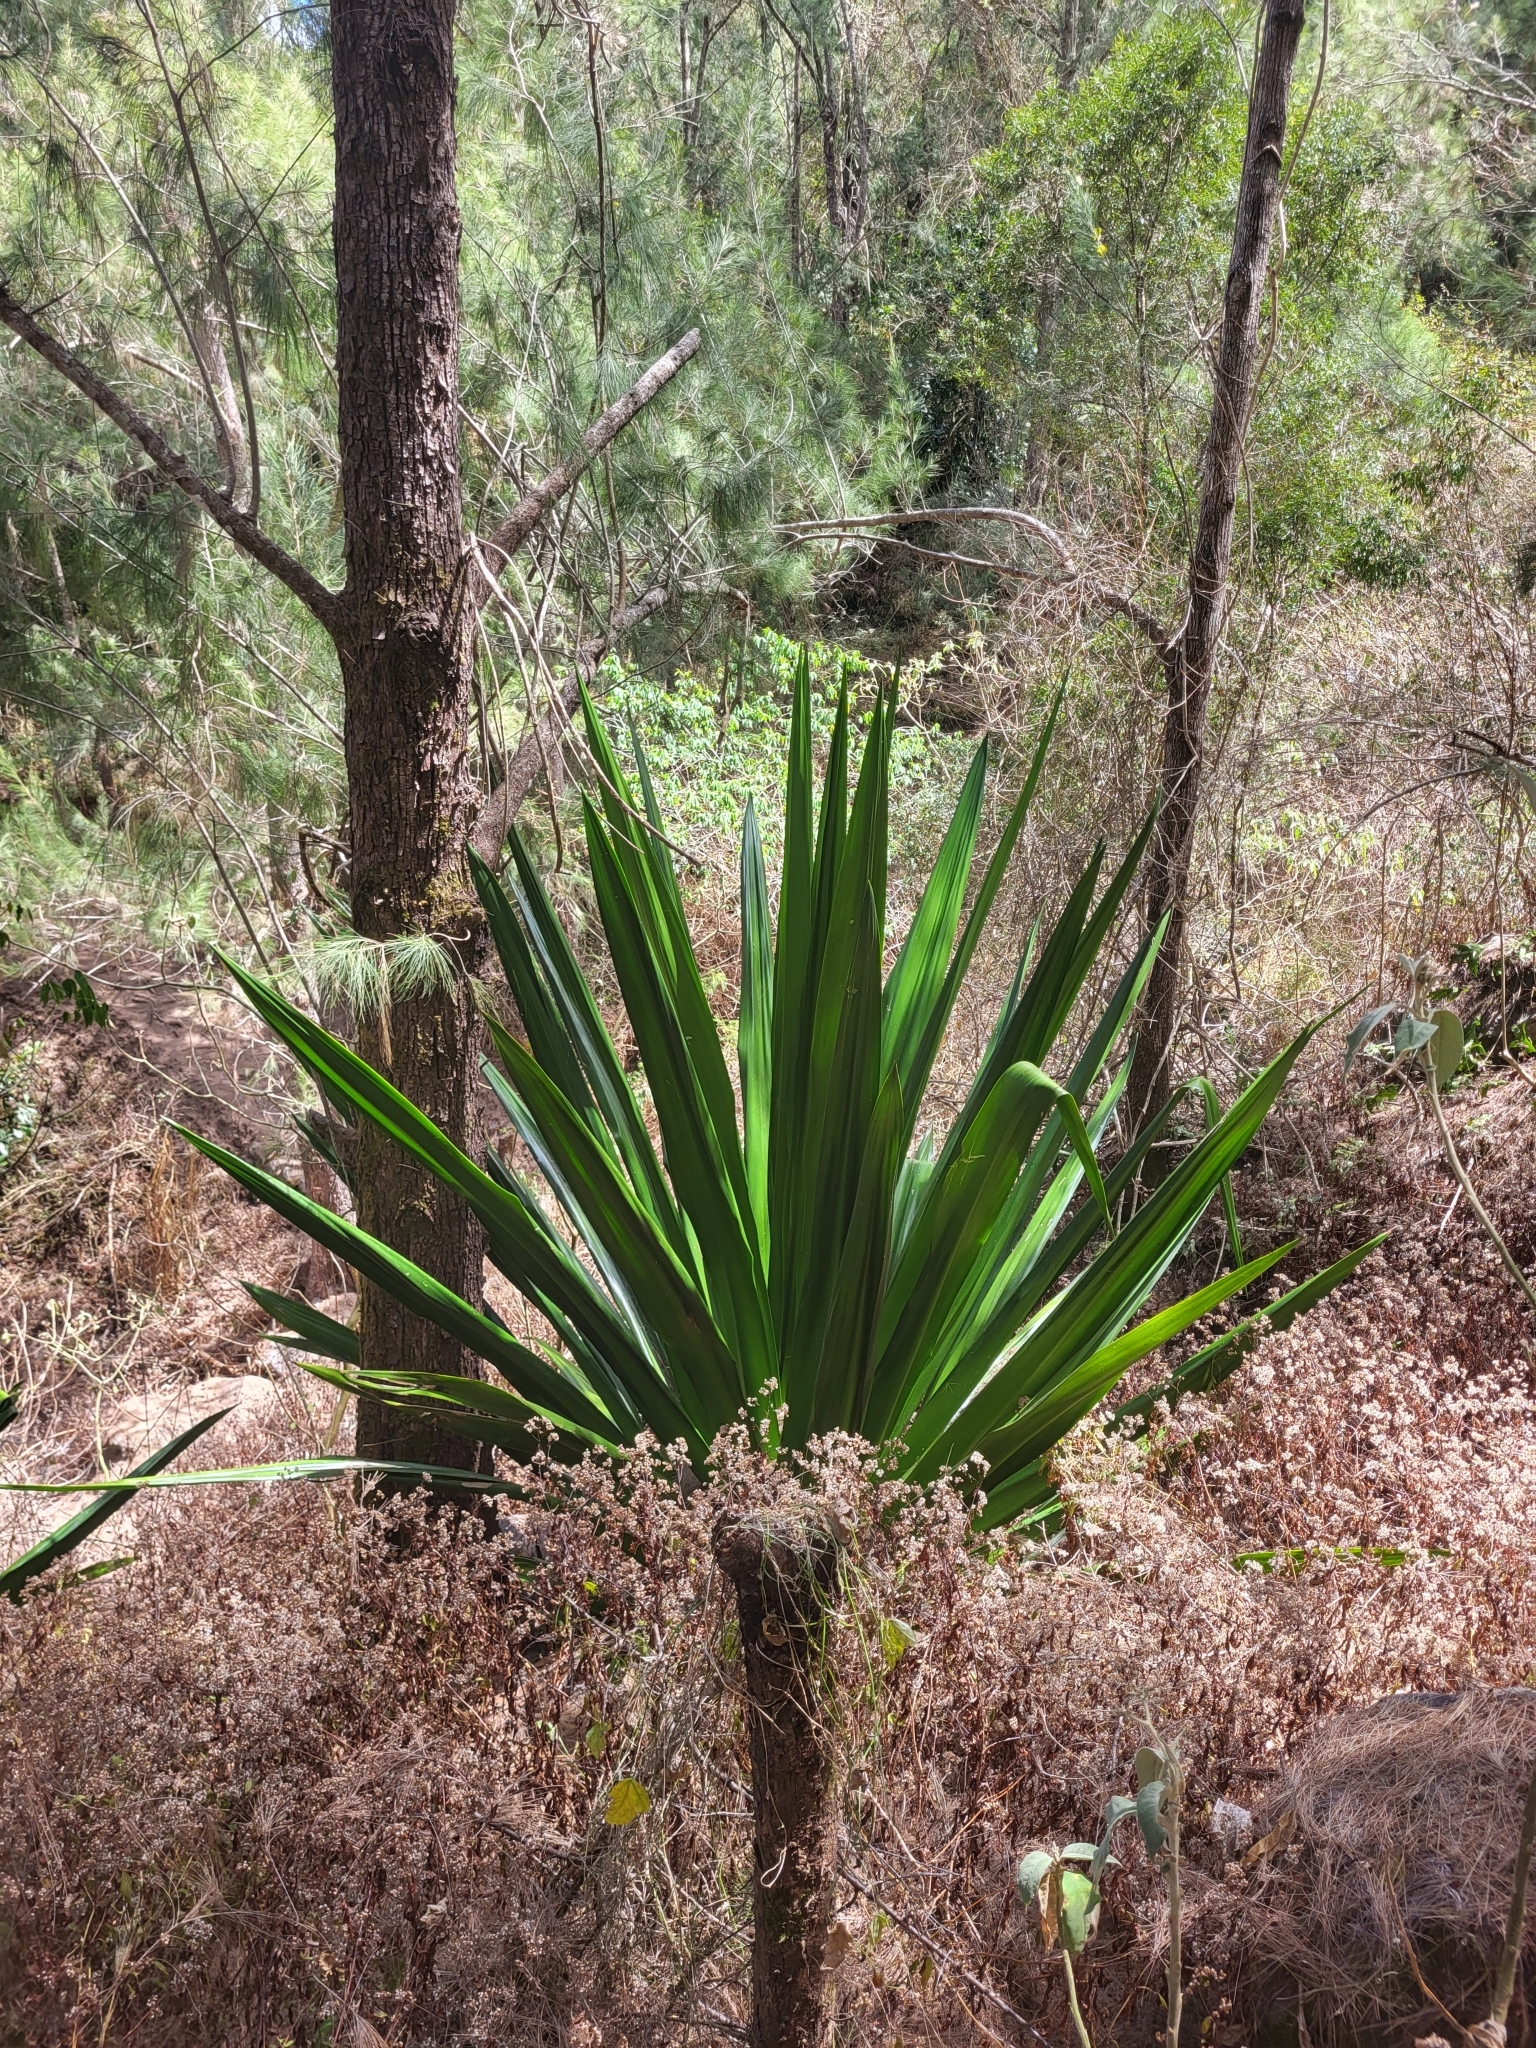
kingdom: Plantae
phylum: Tracheophyta
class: Liliopsida
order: Asparagales
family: Asparagaceae
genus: Furcraea
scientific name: Furcraea foetida
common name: Mauritius hemp
